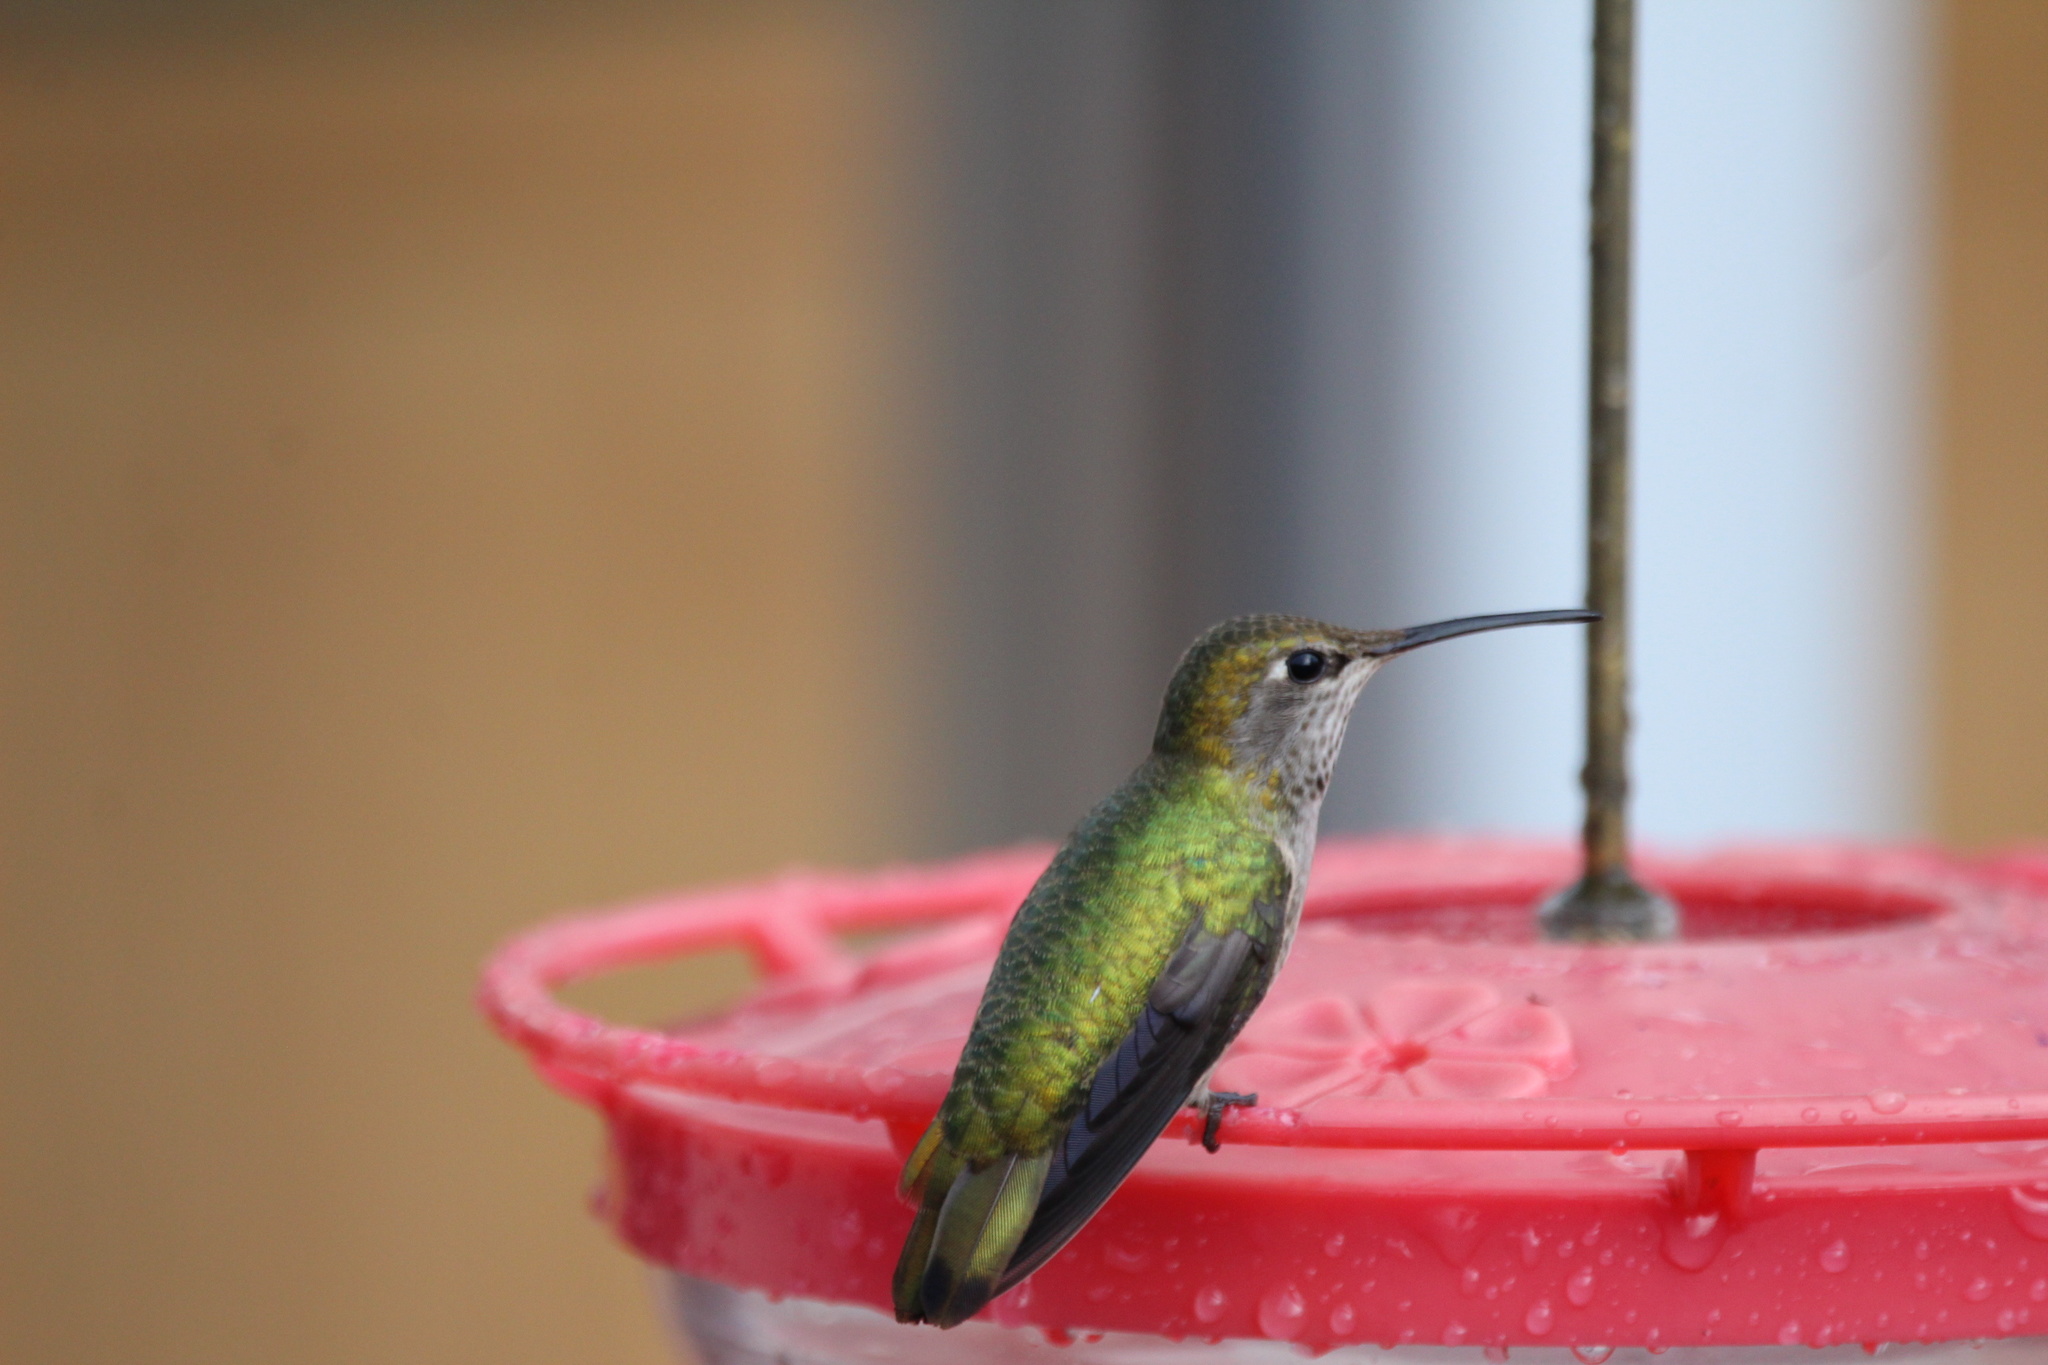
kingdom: Animalia
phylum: Chordata
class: Aves
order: Apodiformes
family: Trochilidae
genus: Calypte
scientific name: Calypte anna
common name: Anna's hummingbird
